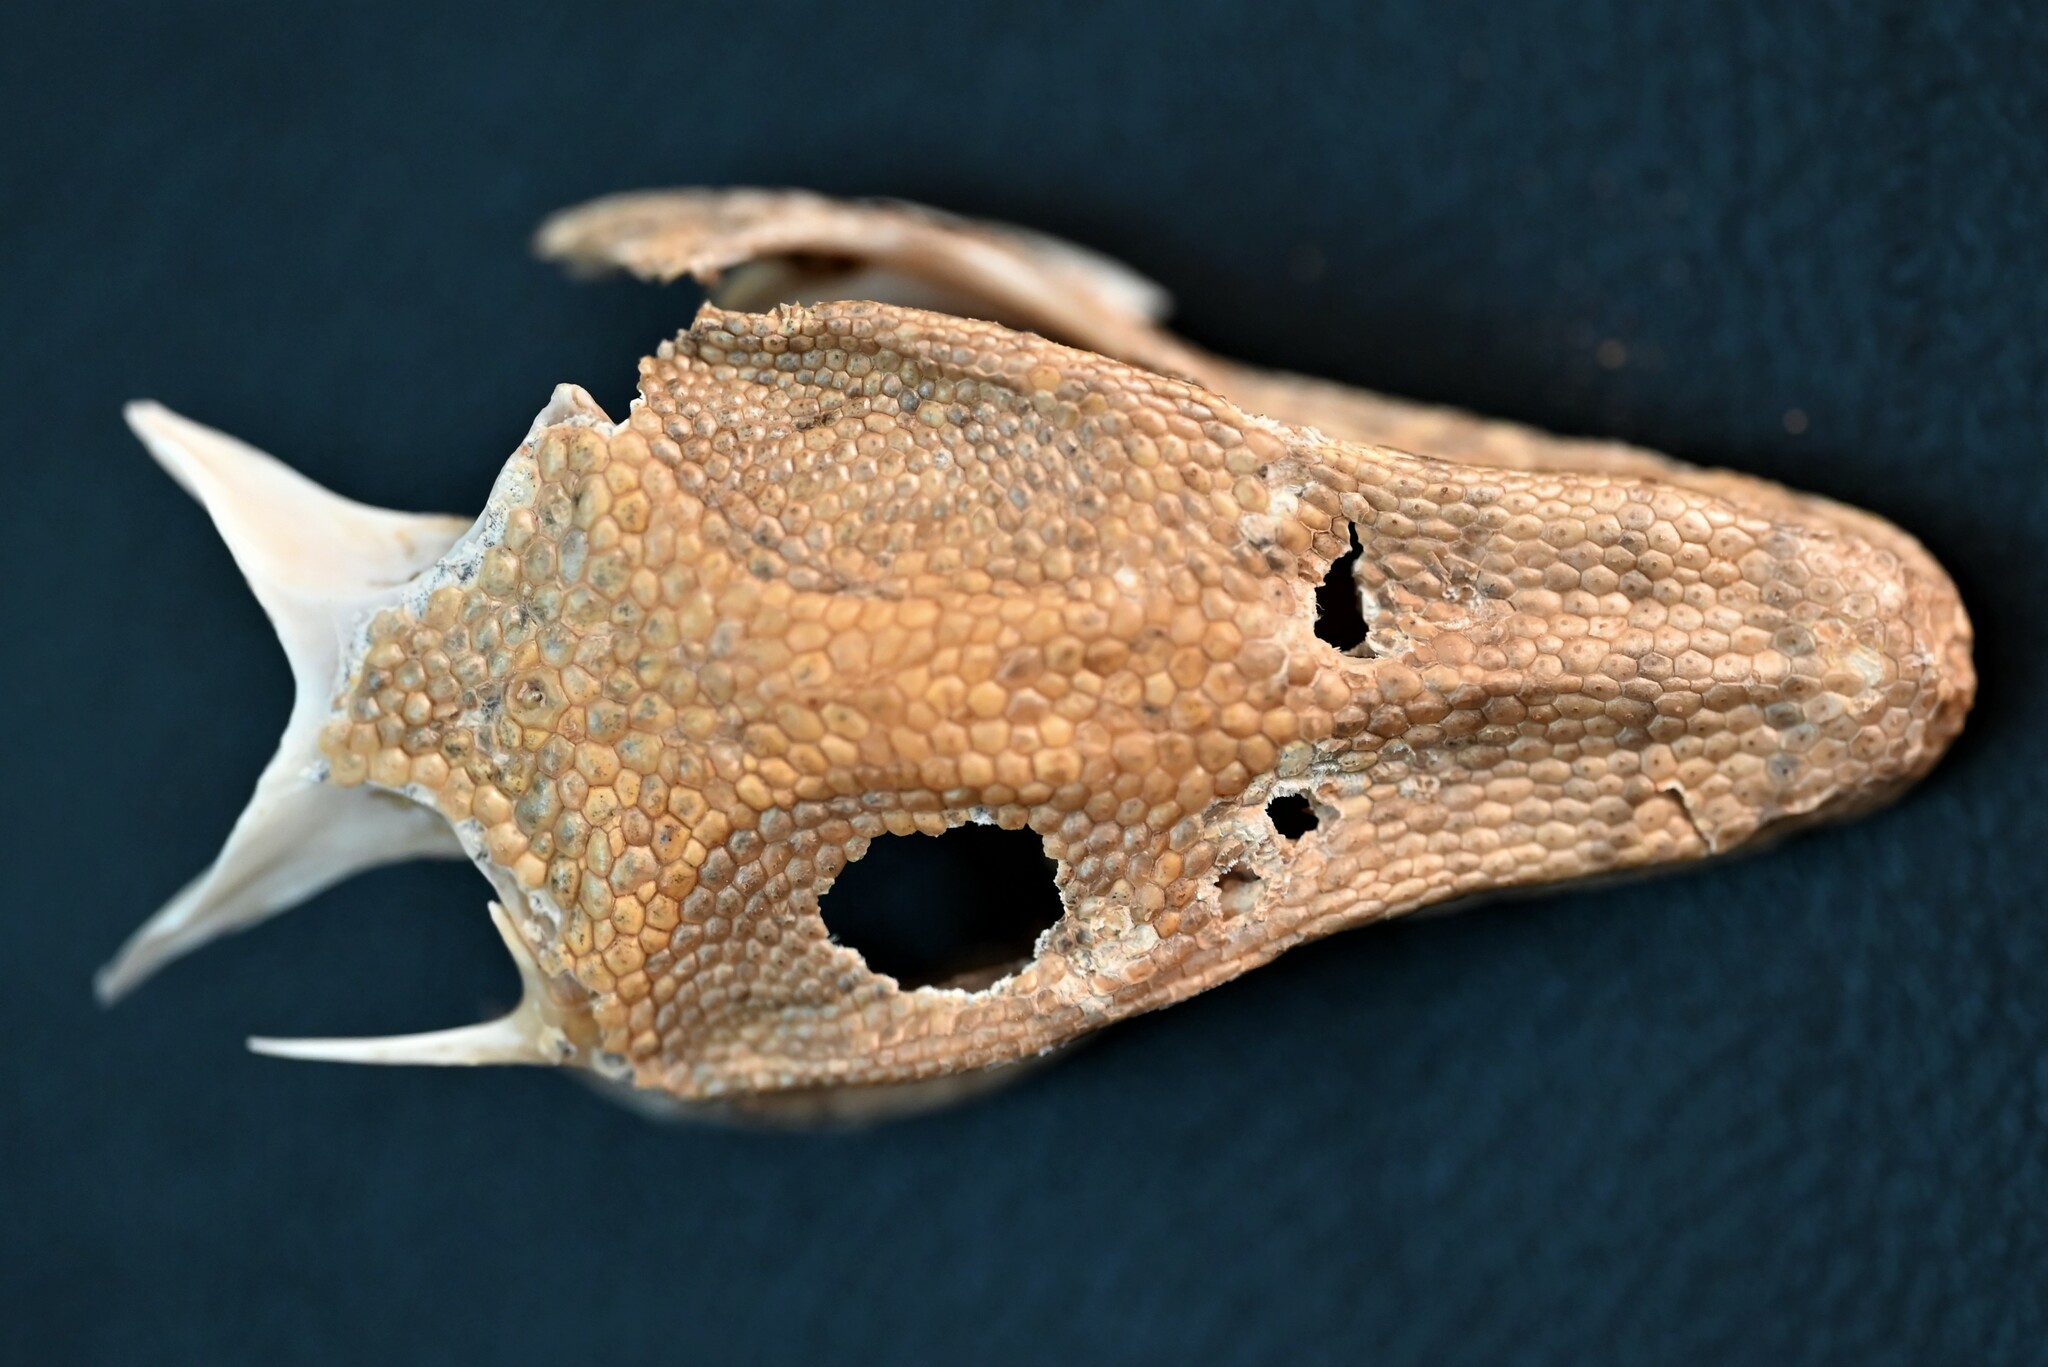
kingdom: Animalia
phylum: Chordata
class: Squamata
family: Varanidae
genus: Varanus
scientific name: Varanus griseus
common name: Desert monitor
